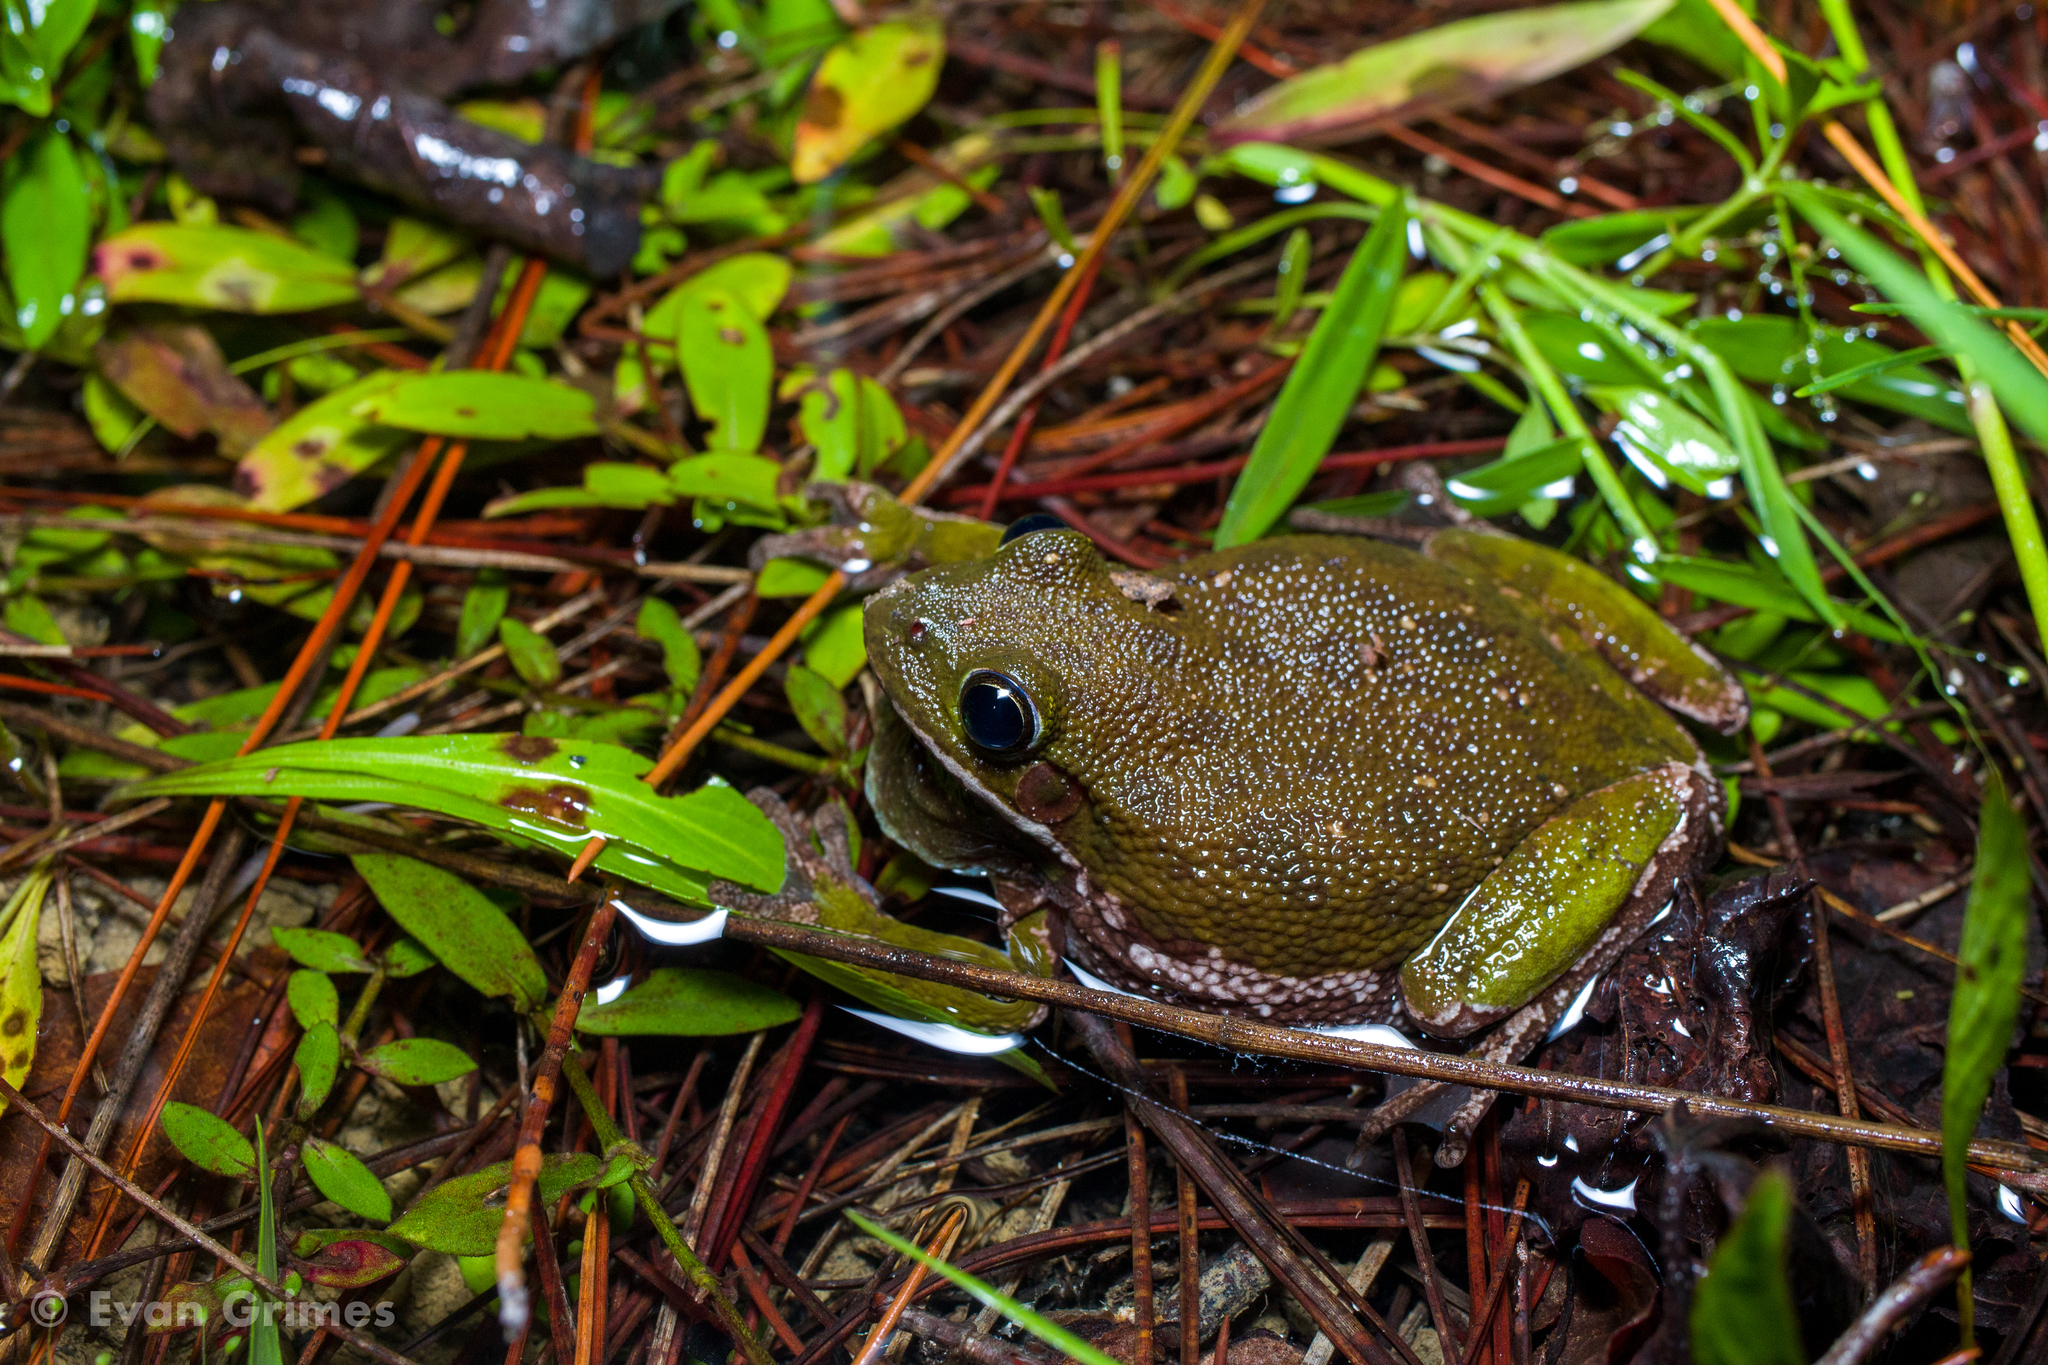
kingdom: Animalia
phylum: Chordata
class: Amphibia
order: Anura
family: Hylidae
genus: Dryophytes
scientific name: Dryophytes gratiosus
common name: Barking treefrog
